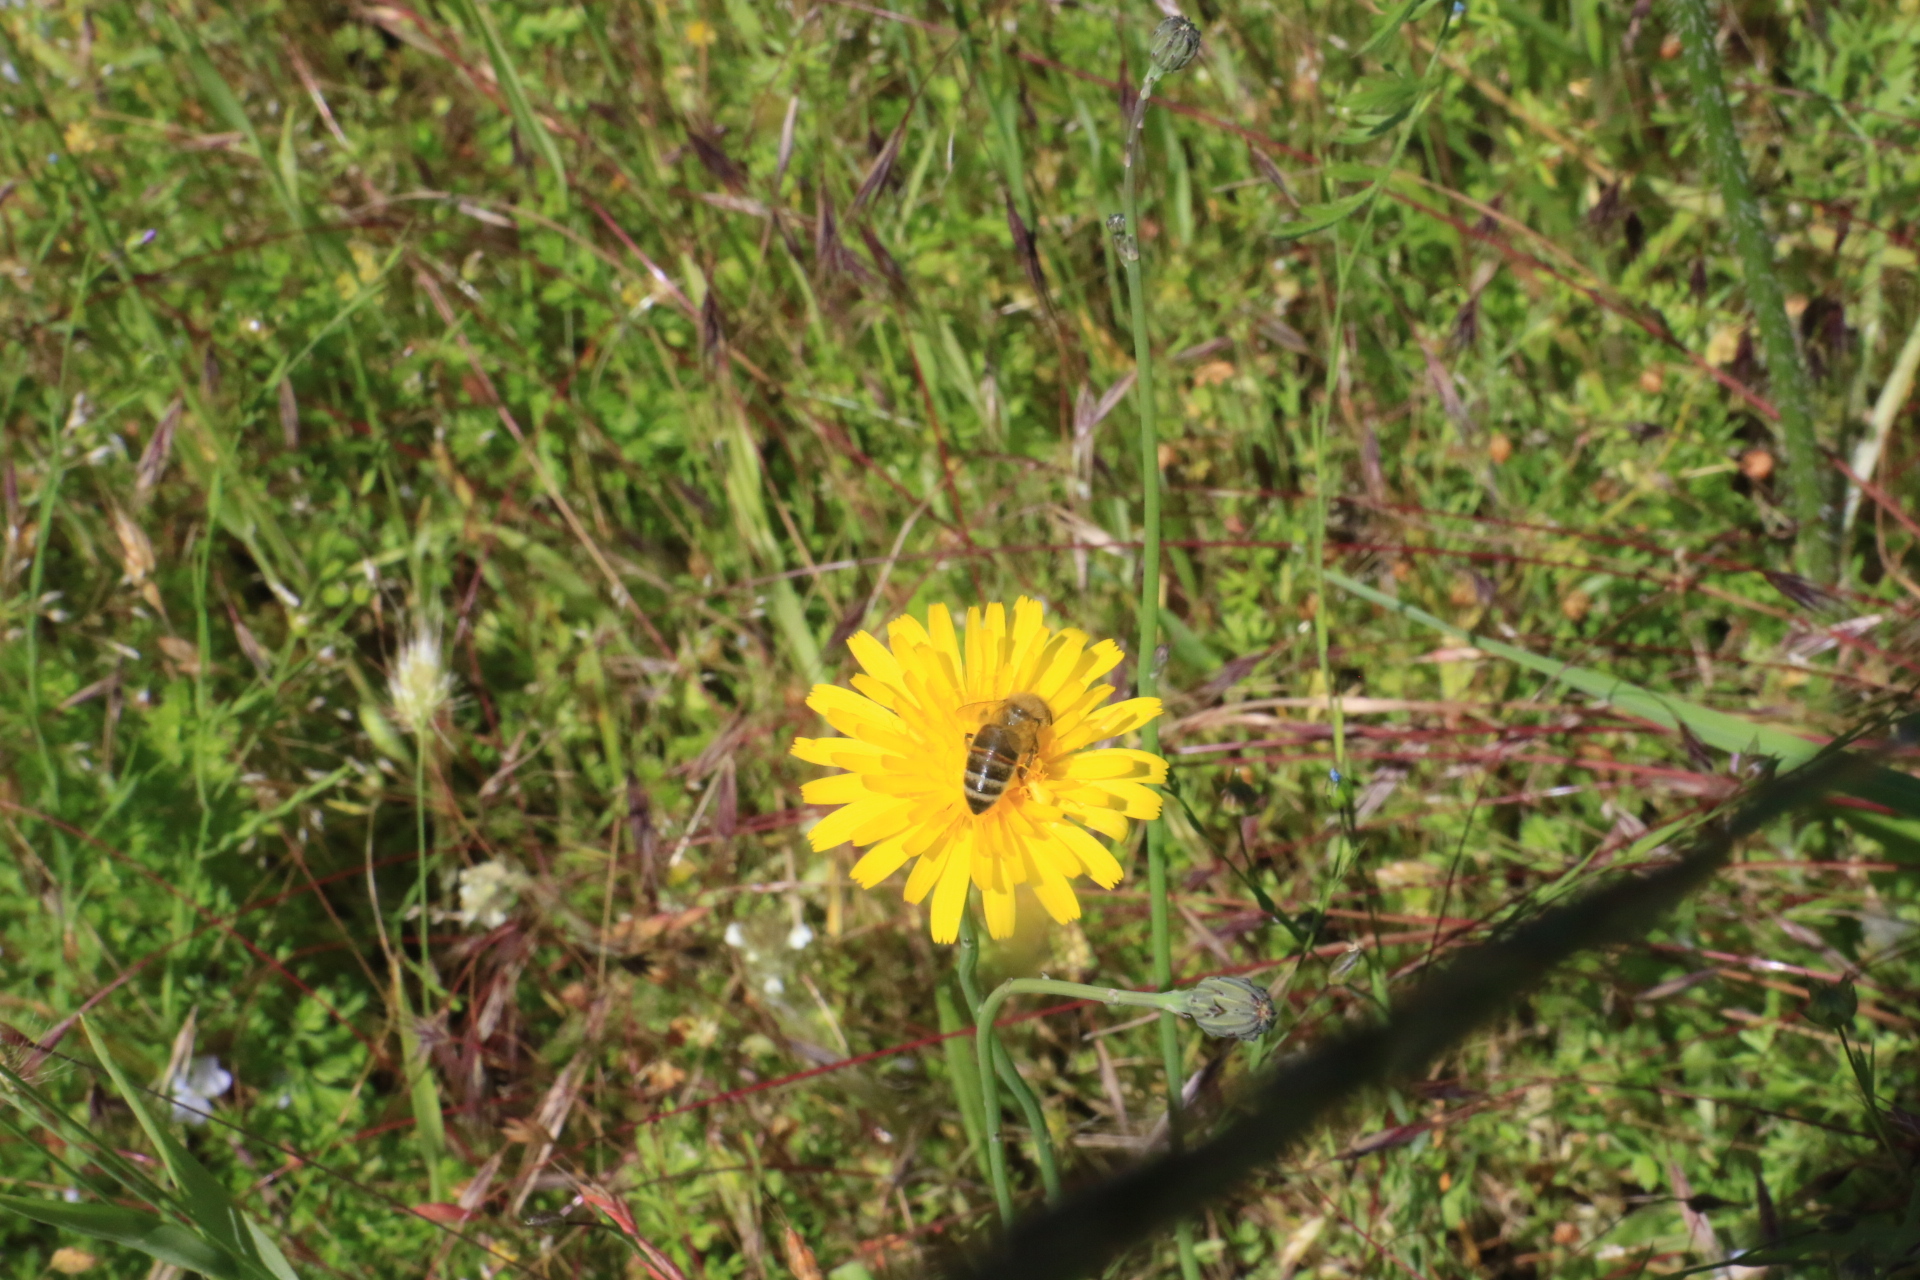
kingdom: Animalia
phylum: Arthropoda
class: Insecta
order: Hymenoptera
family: Apidae
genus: Apis
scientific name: Apis mellifera
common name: Honey bee
